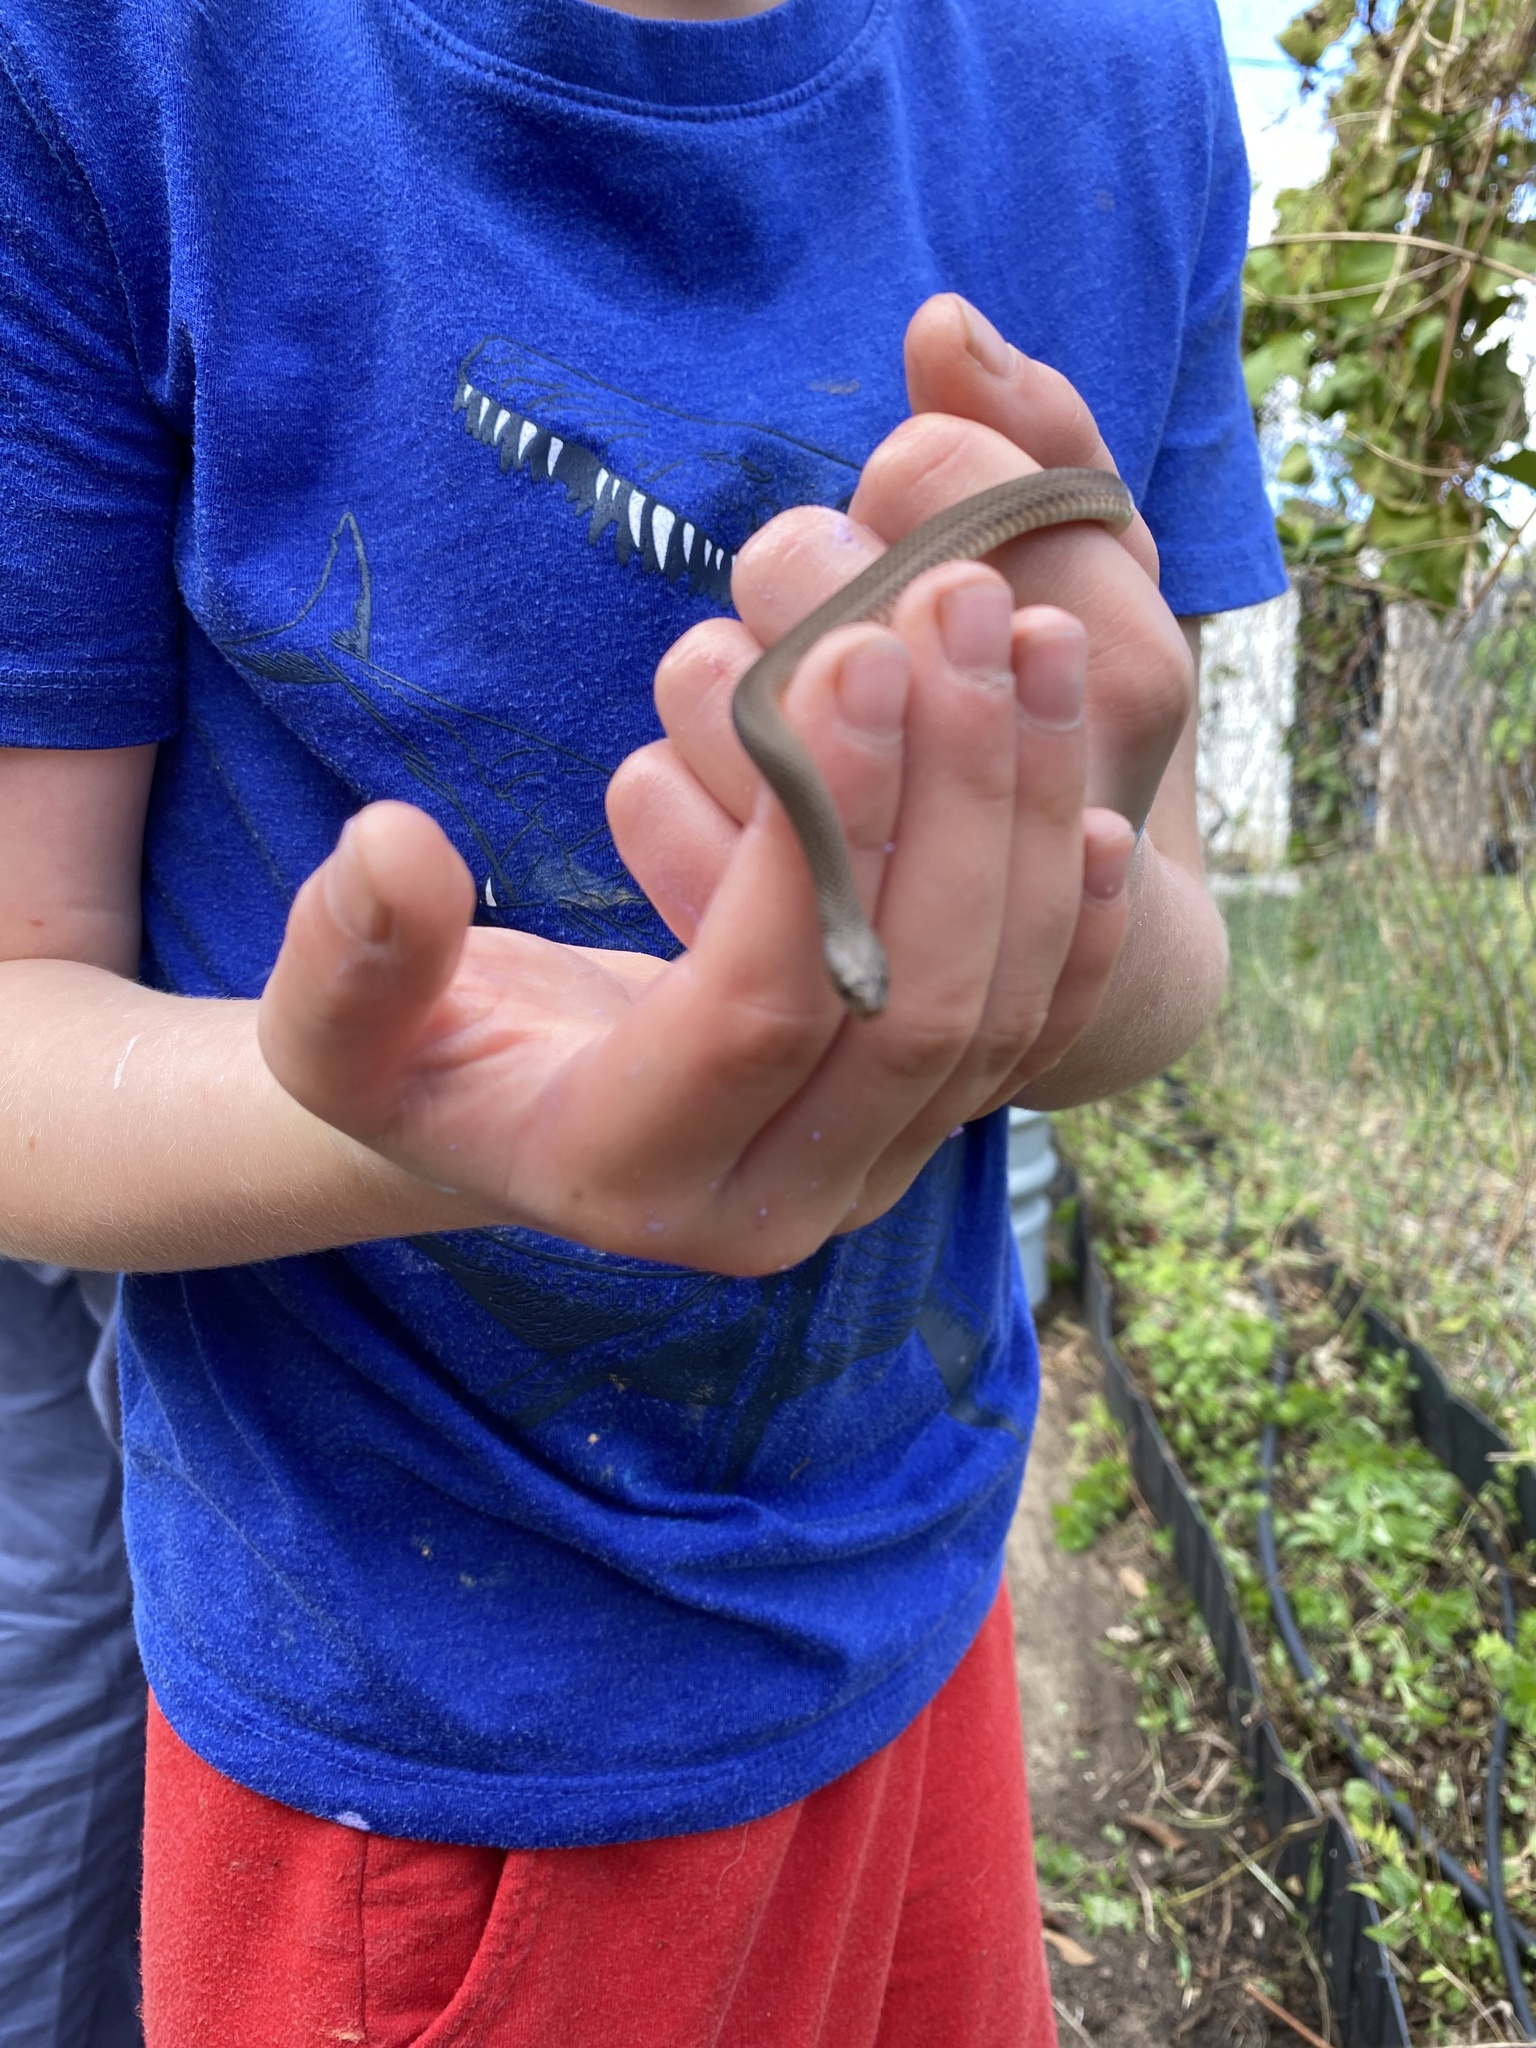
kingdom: Animalia
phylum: Chordata
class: Squamata
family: Colubridae
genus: Haldea
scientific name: Haldea striatula
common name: Rough earth snake
